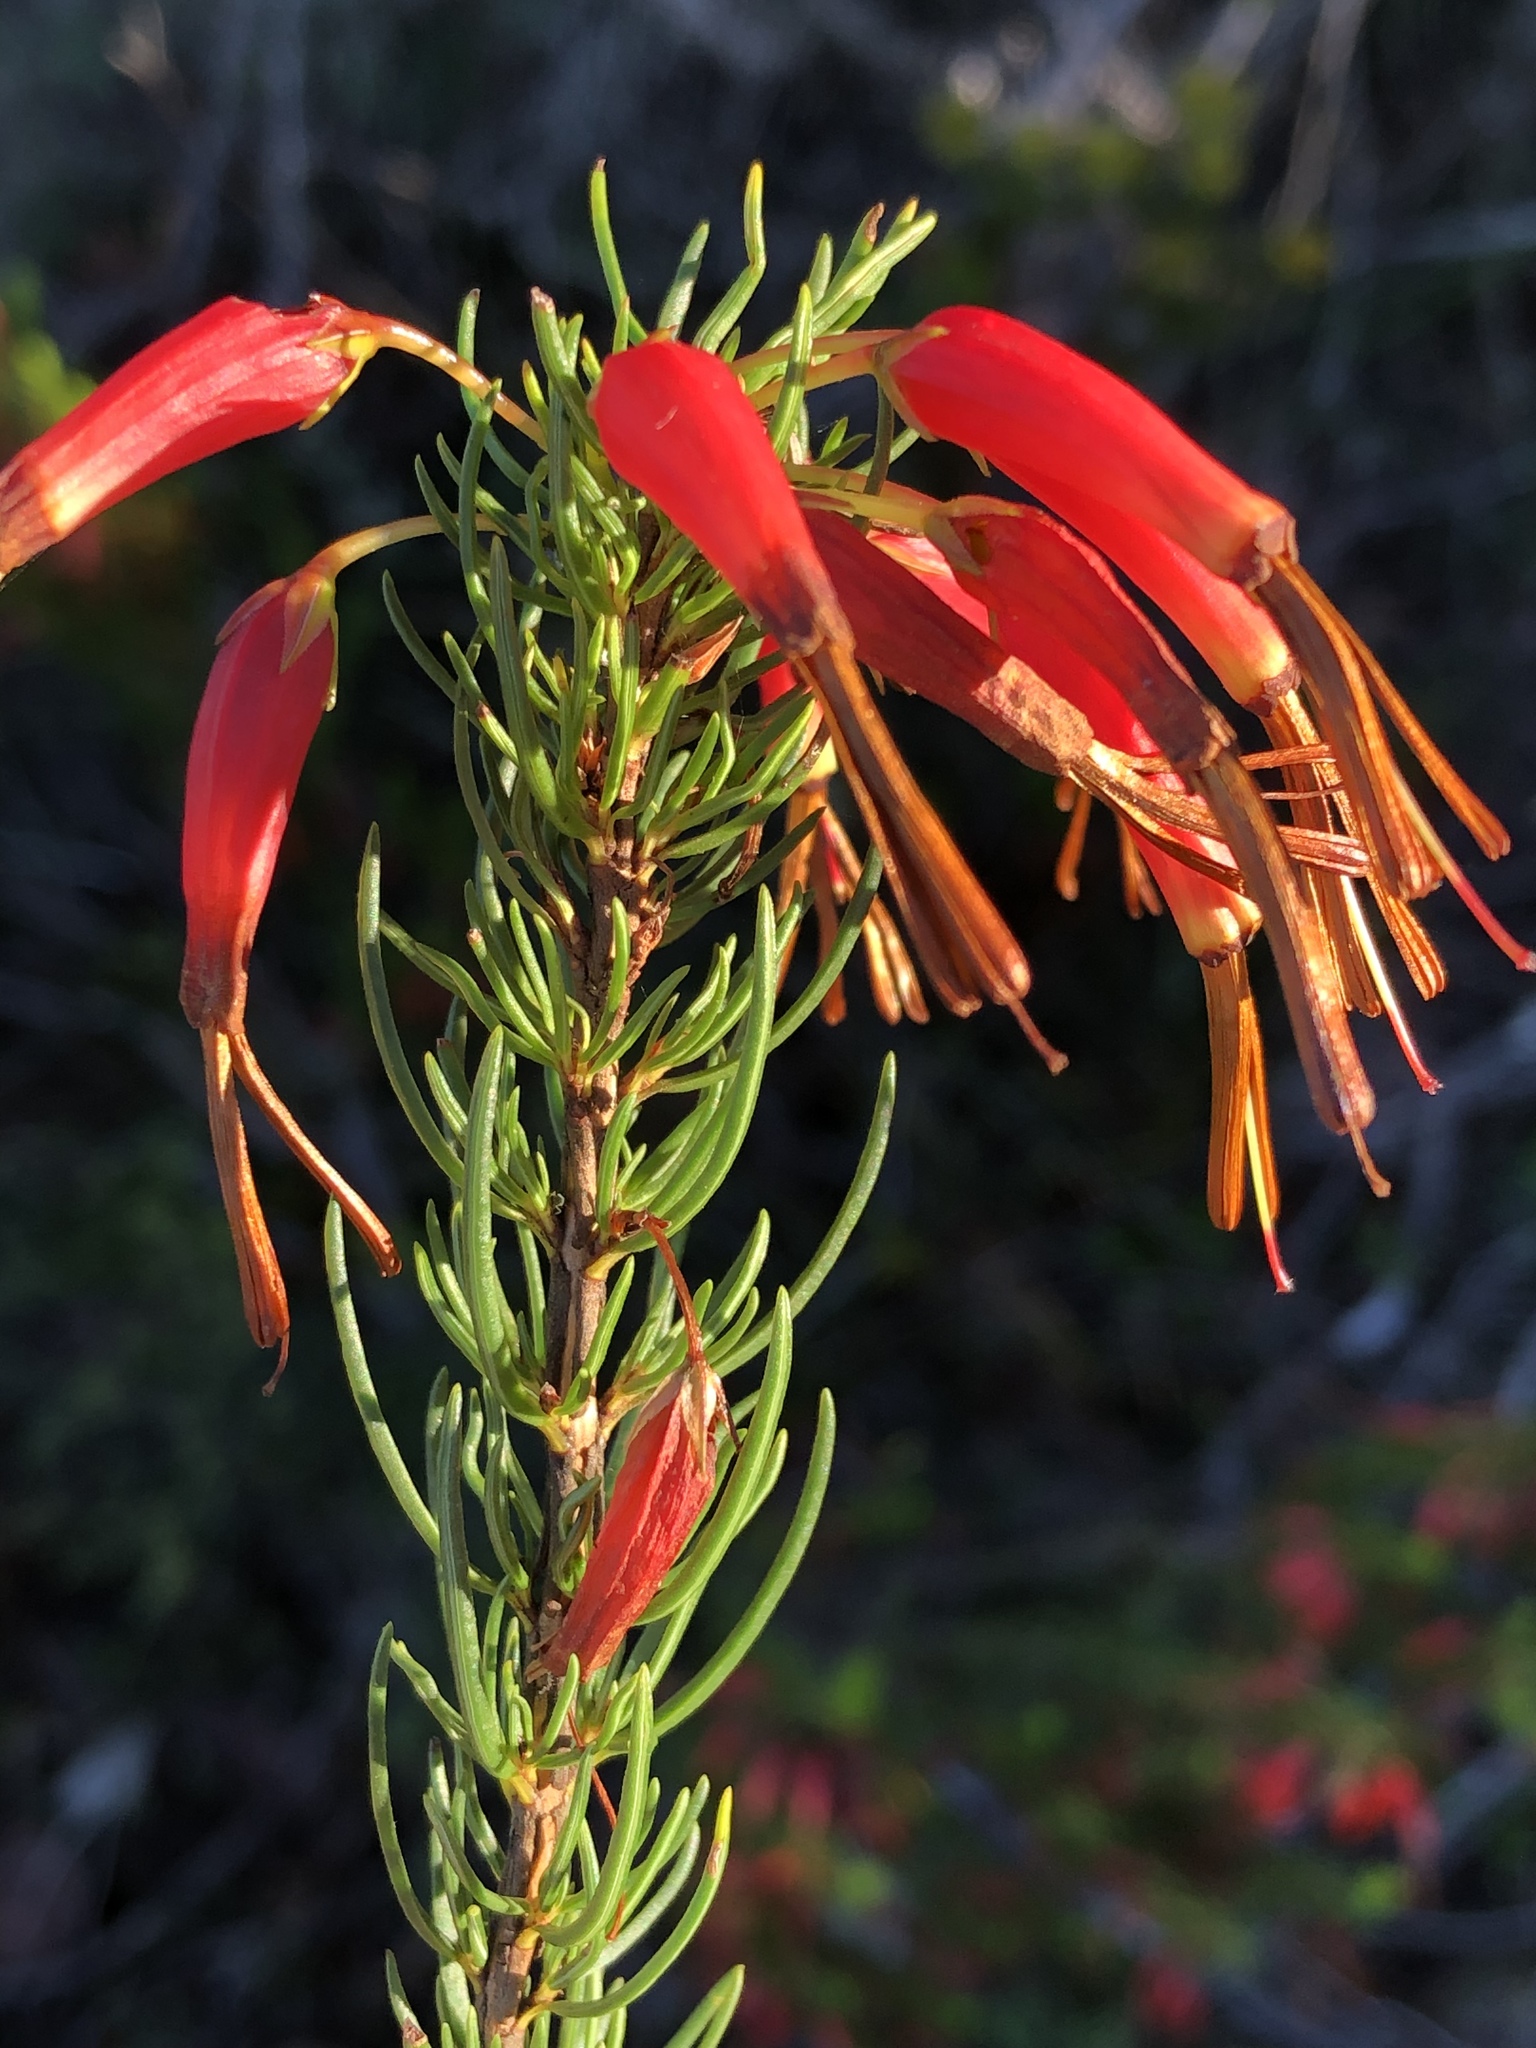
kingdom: Plantae
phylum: Tracheophyta
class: Magnoliopsida
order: Ericales
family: Ericaceae
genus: Erica
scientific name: Erica plukenetii
